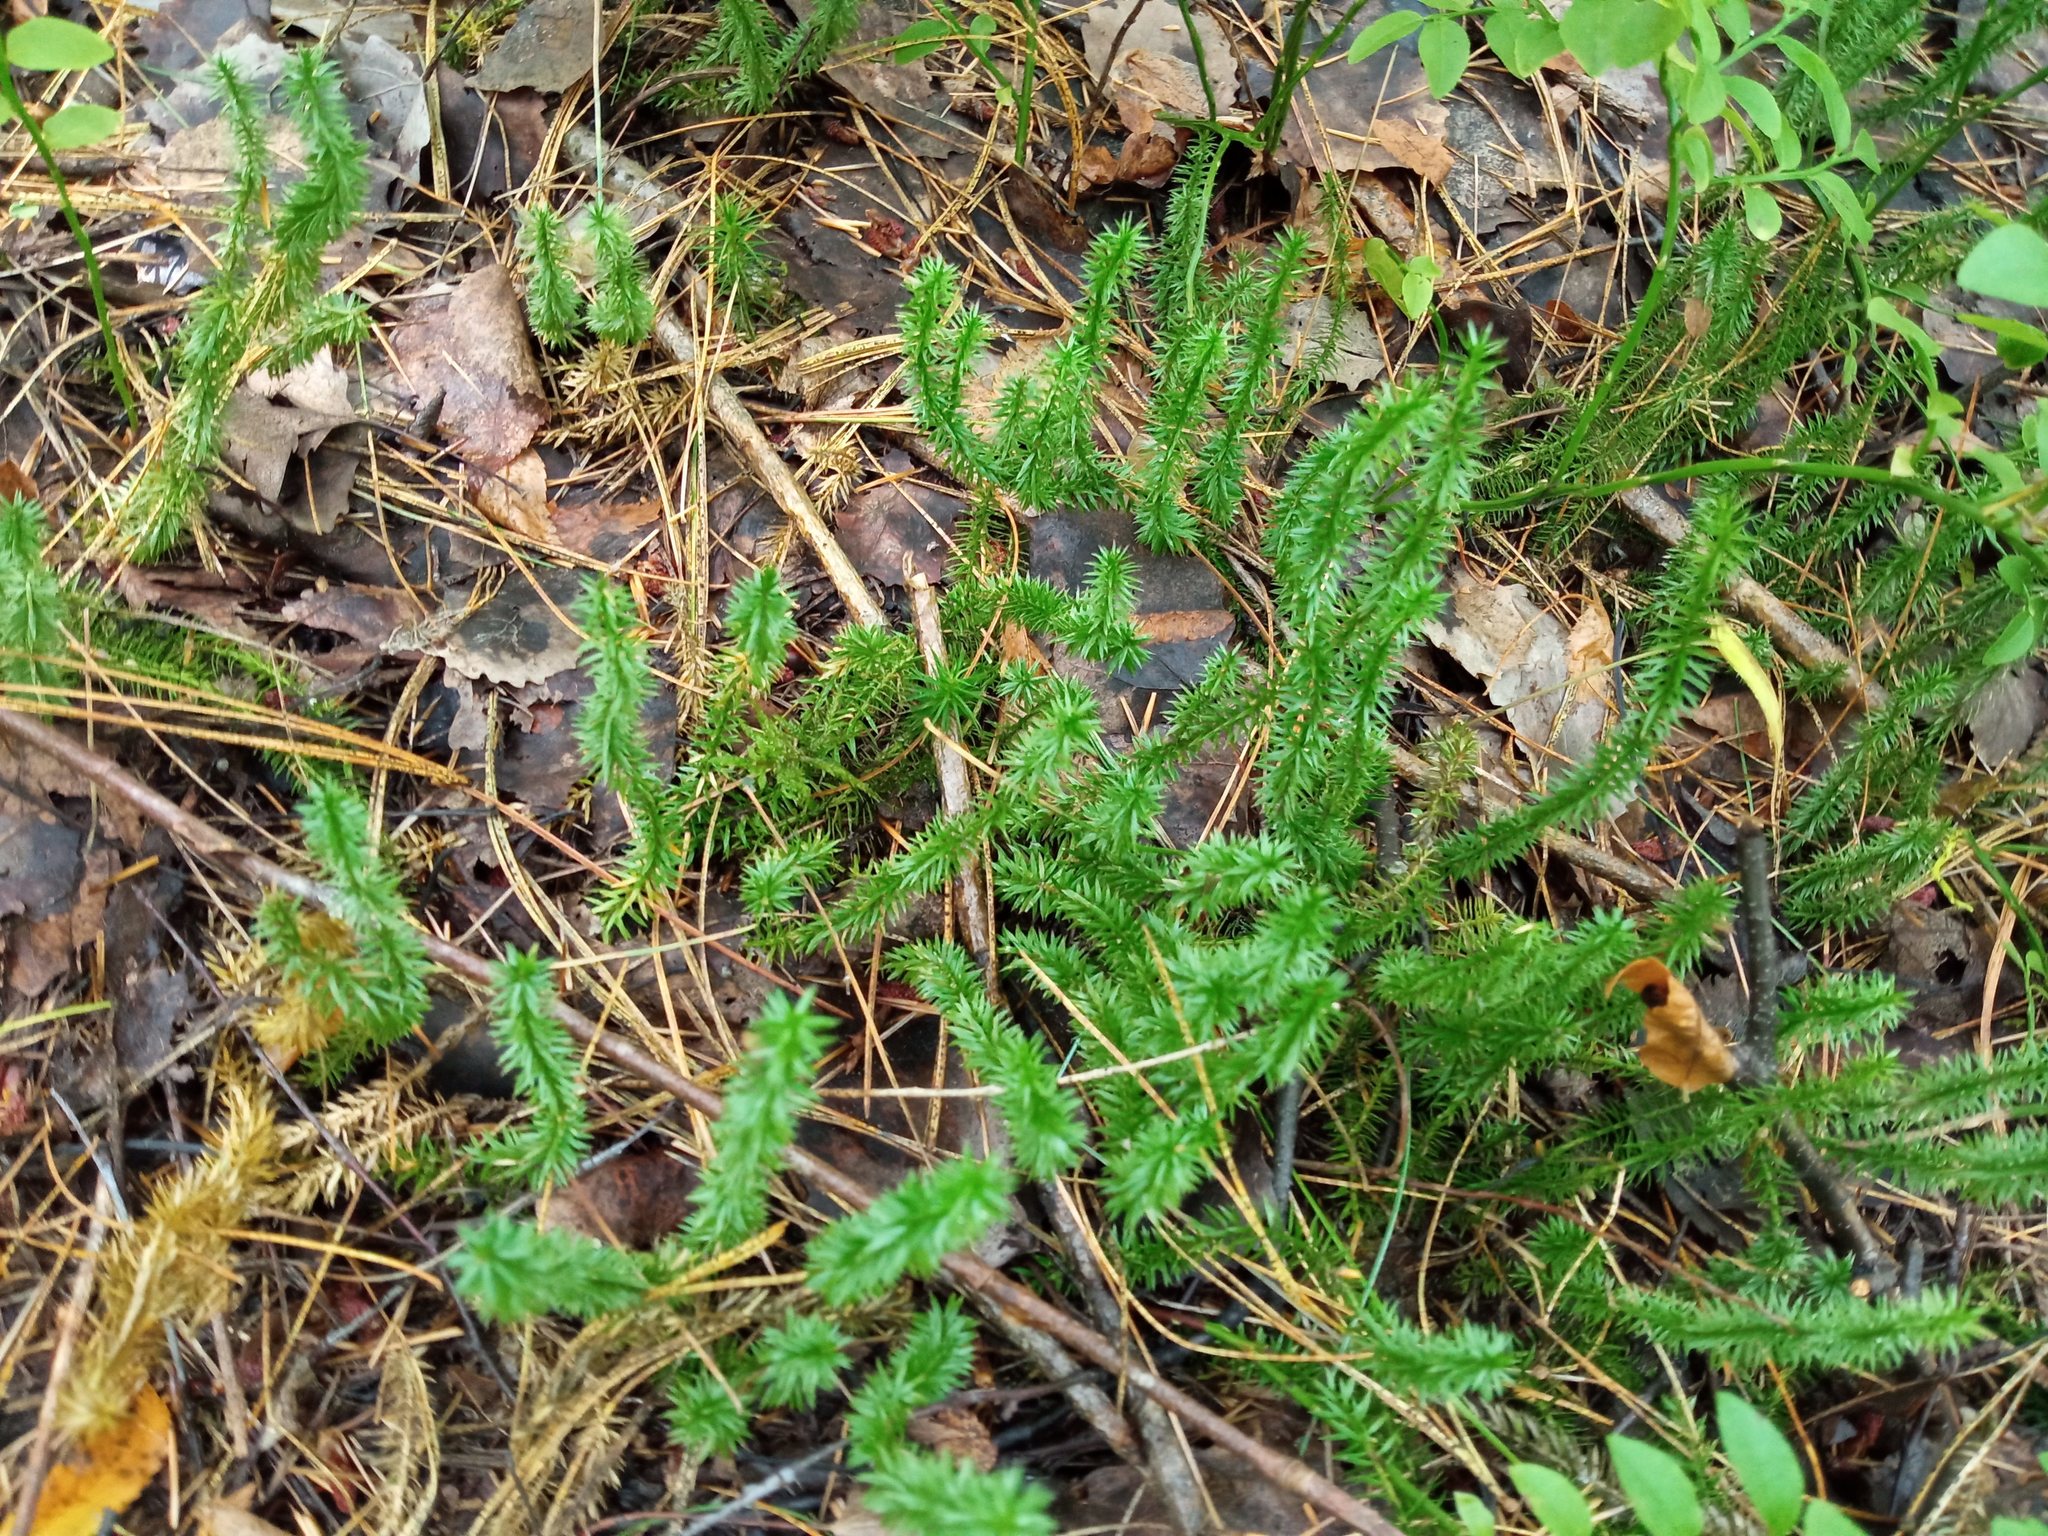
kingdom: Plantae
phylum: Tracheophyta
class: Lycopodiopsida
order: Lycopodiales
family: Lycopodiaceae
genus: Spinulum
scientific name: Spinulum annotinum
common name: Interrupted club-moss
